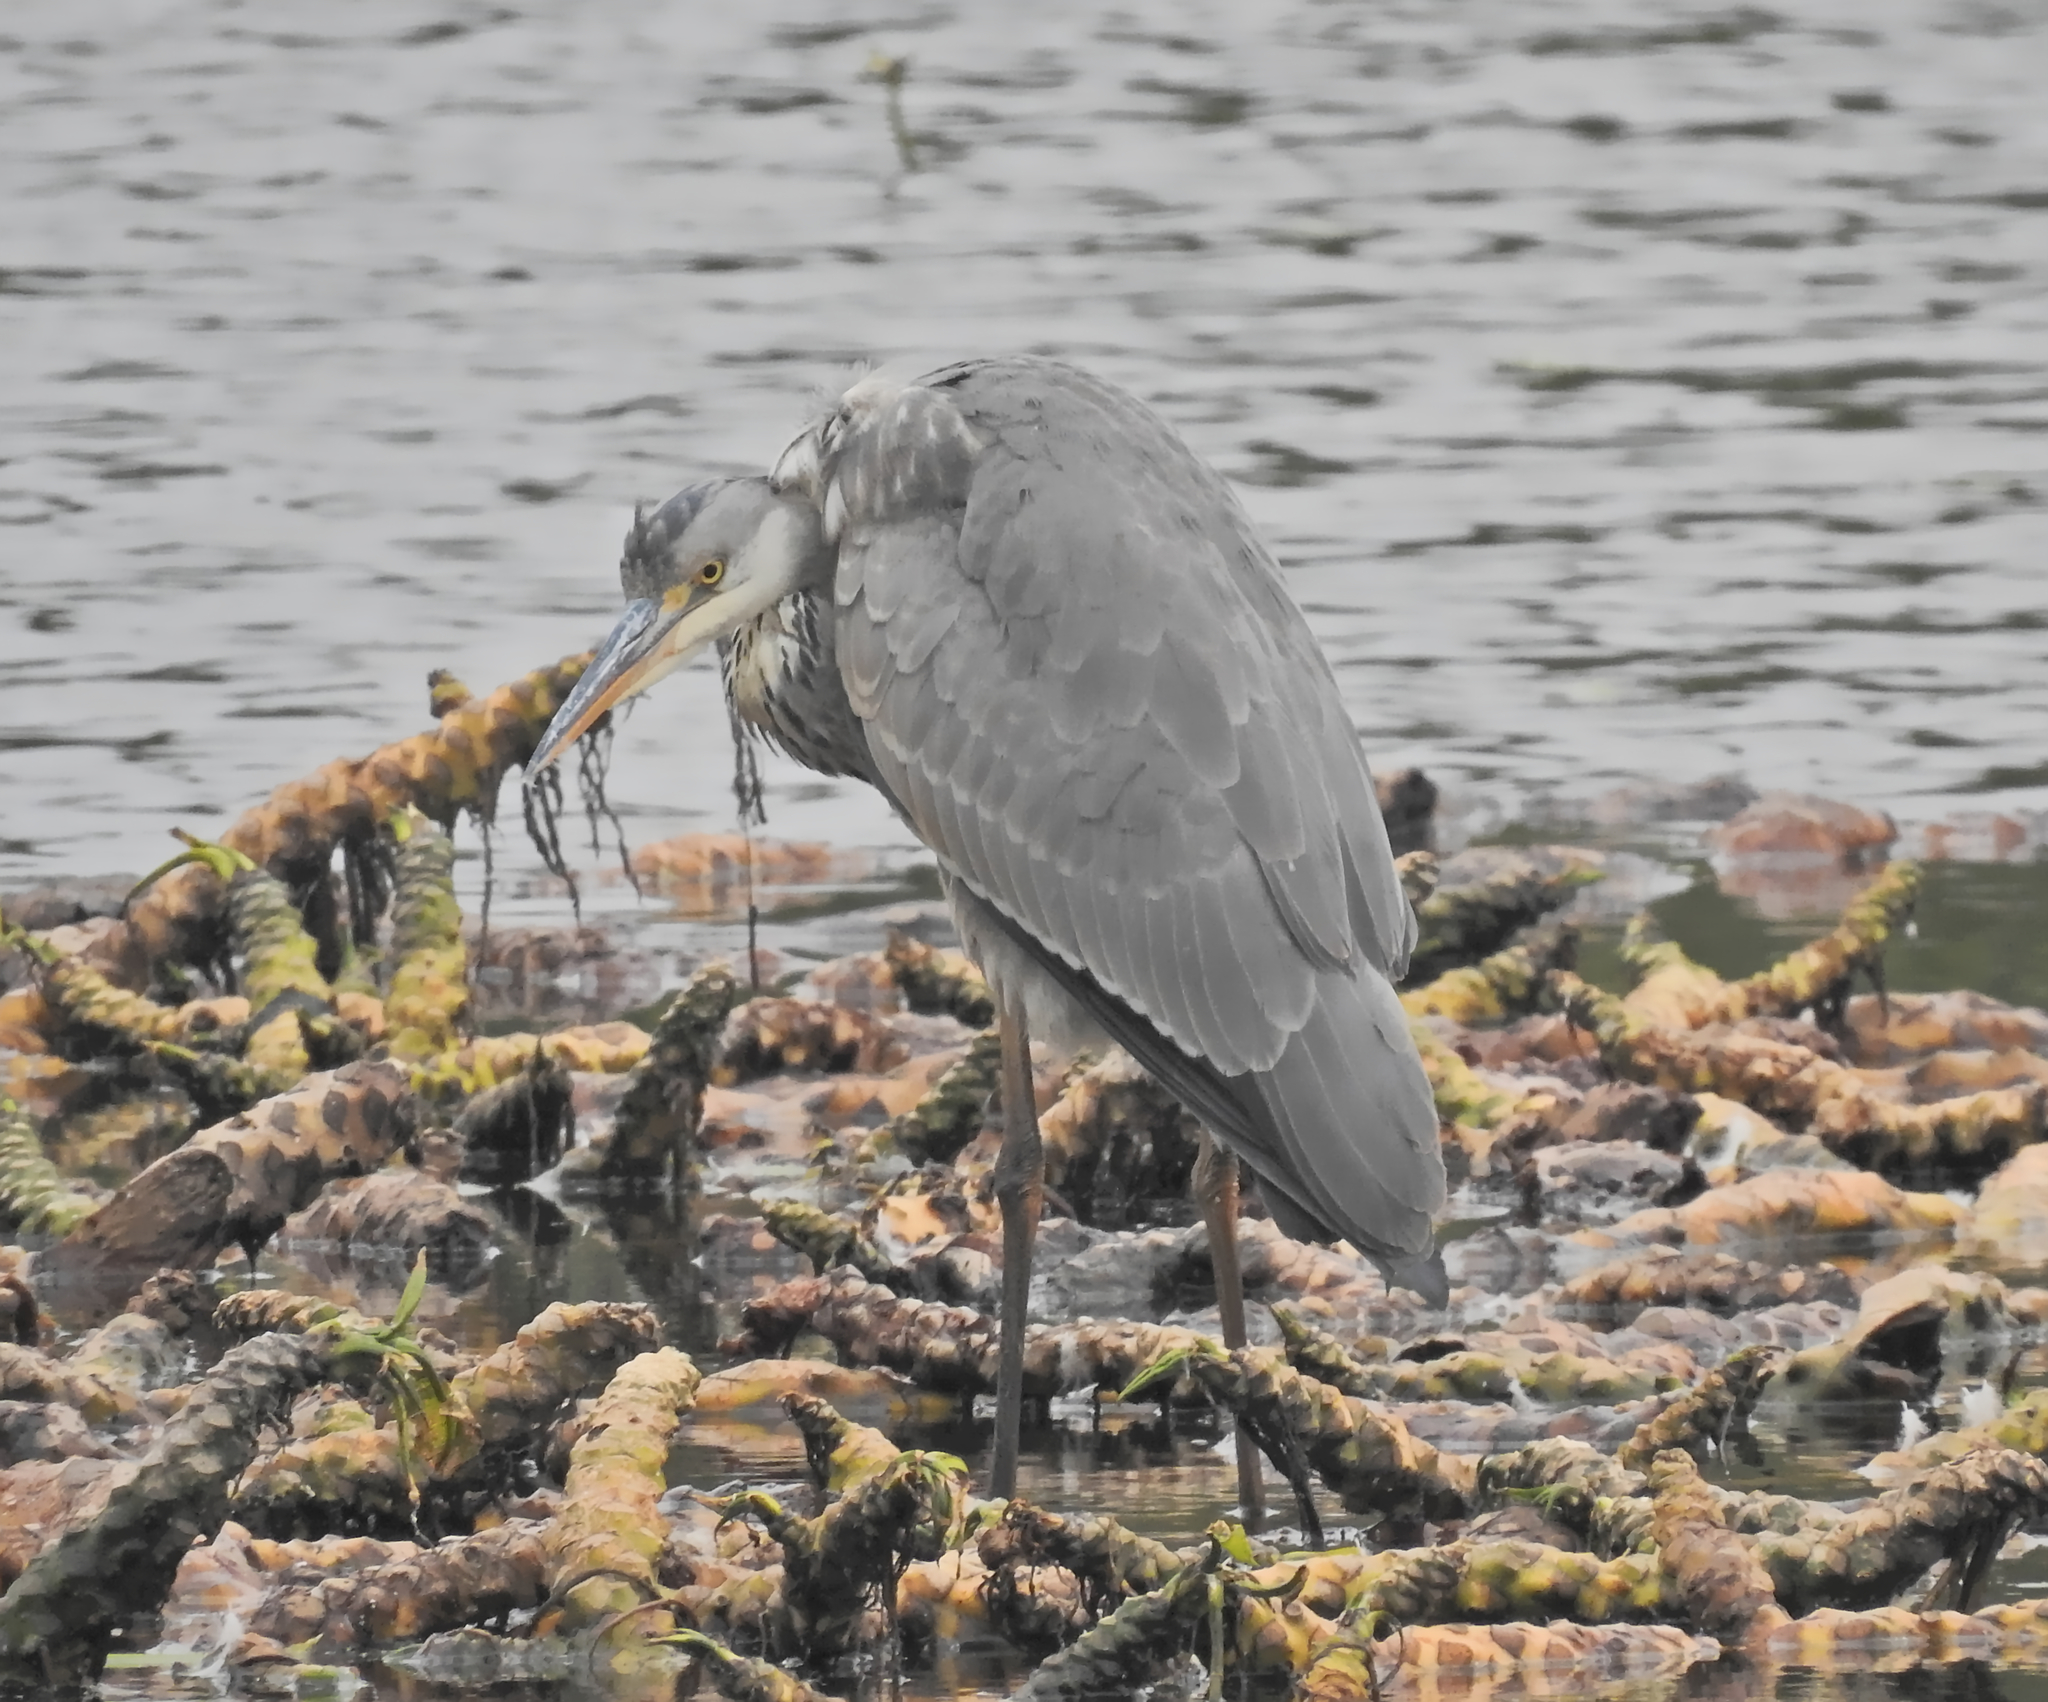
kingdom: Animalia
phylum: Chordata
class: Aves
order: Pelecaniformes
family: Ardeidae
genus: Ardea
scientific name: Ardea cinerea
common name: Grey heron
